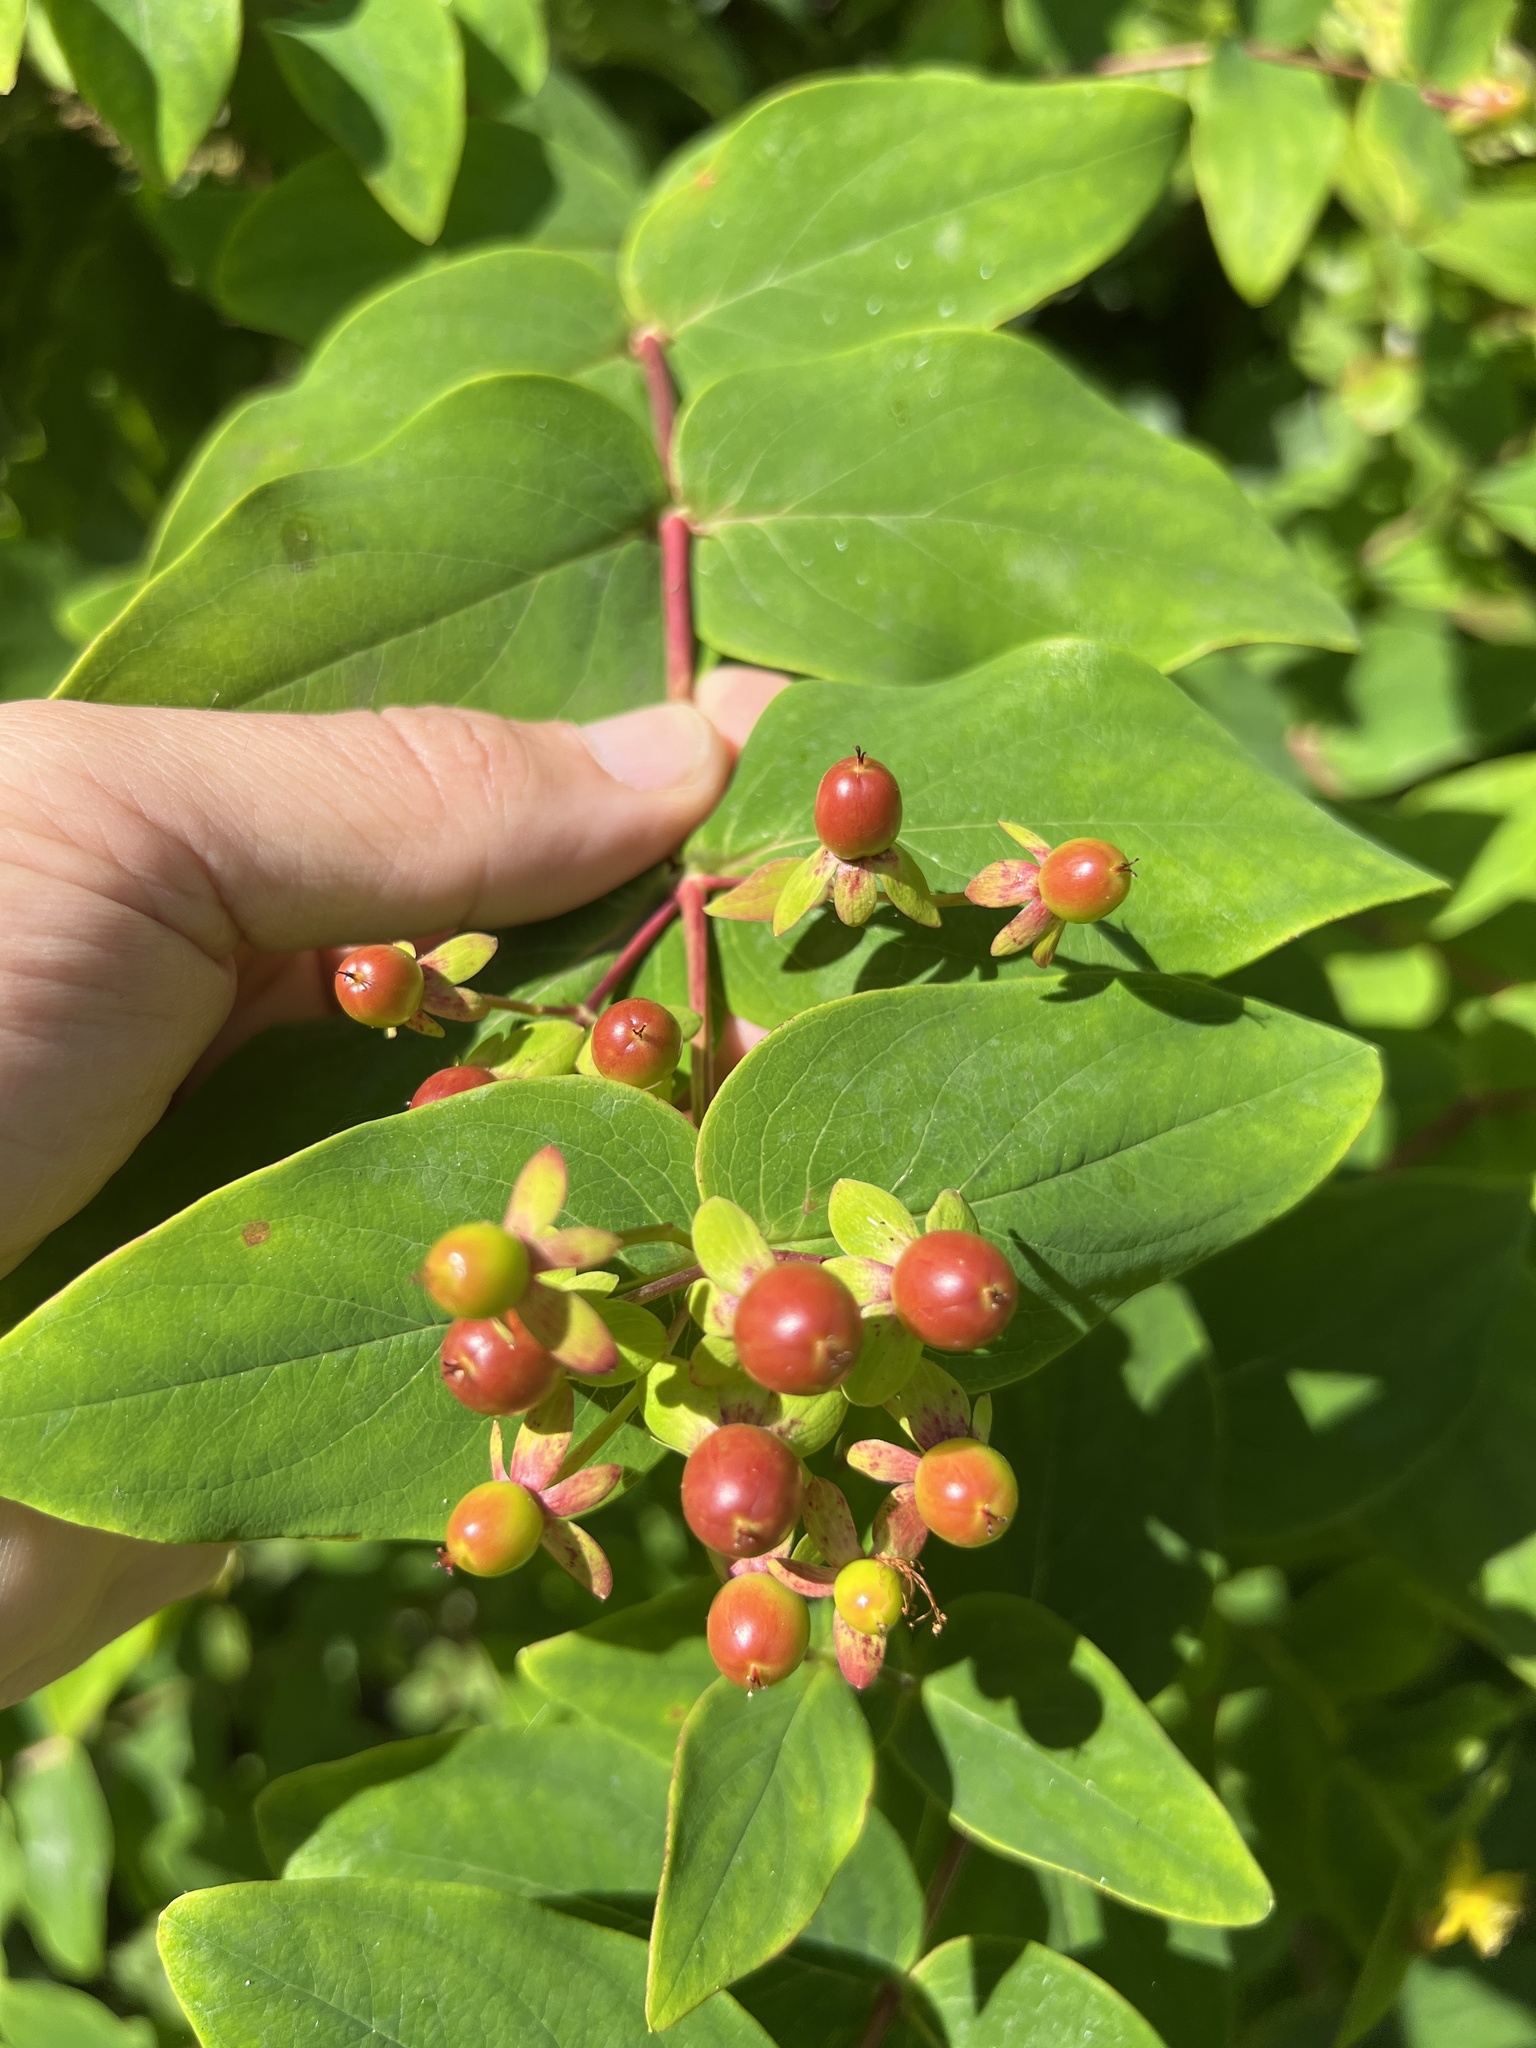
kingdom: Plantae
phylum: Tracheophyta
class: Magnoliopsida
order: Malpighiales
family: Hypericaceae
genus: Hypericum
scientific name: Hypericum androsaemum
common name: Sweet-amber
